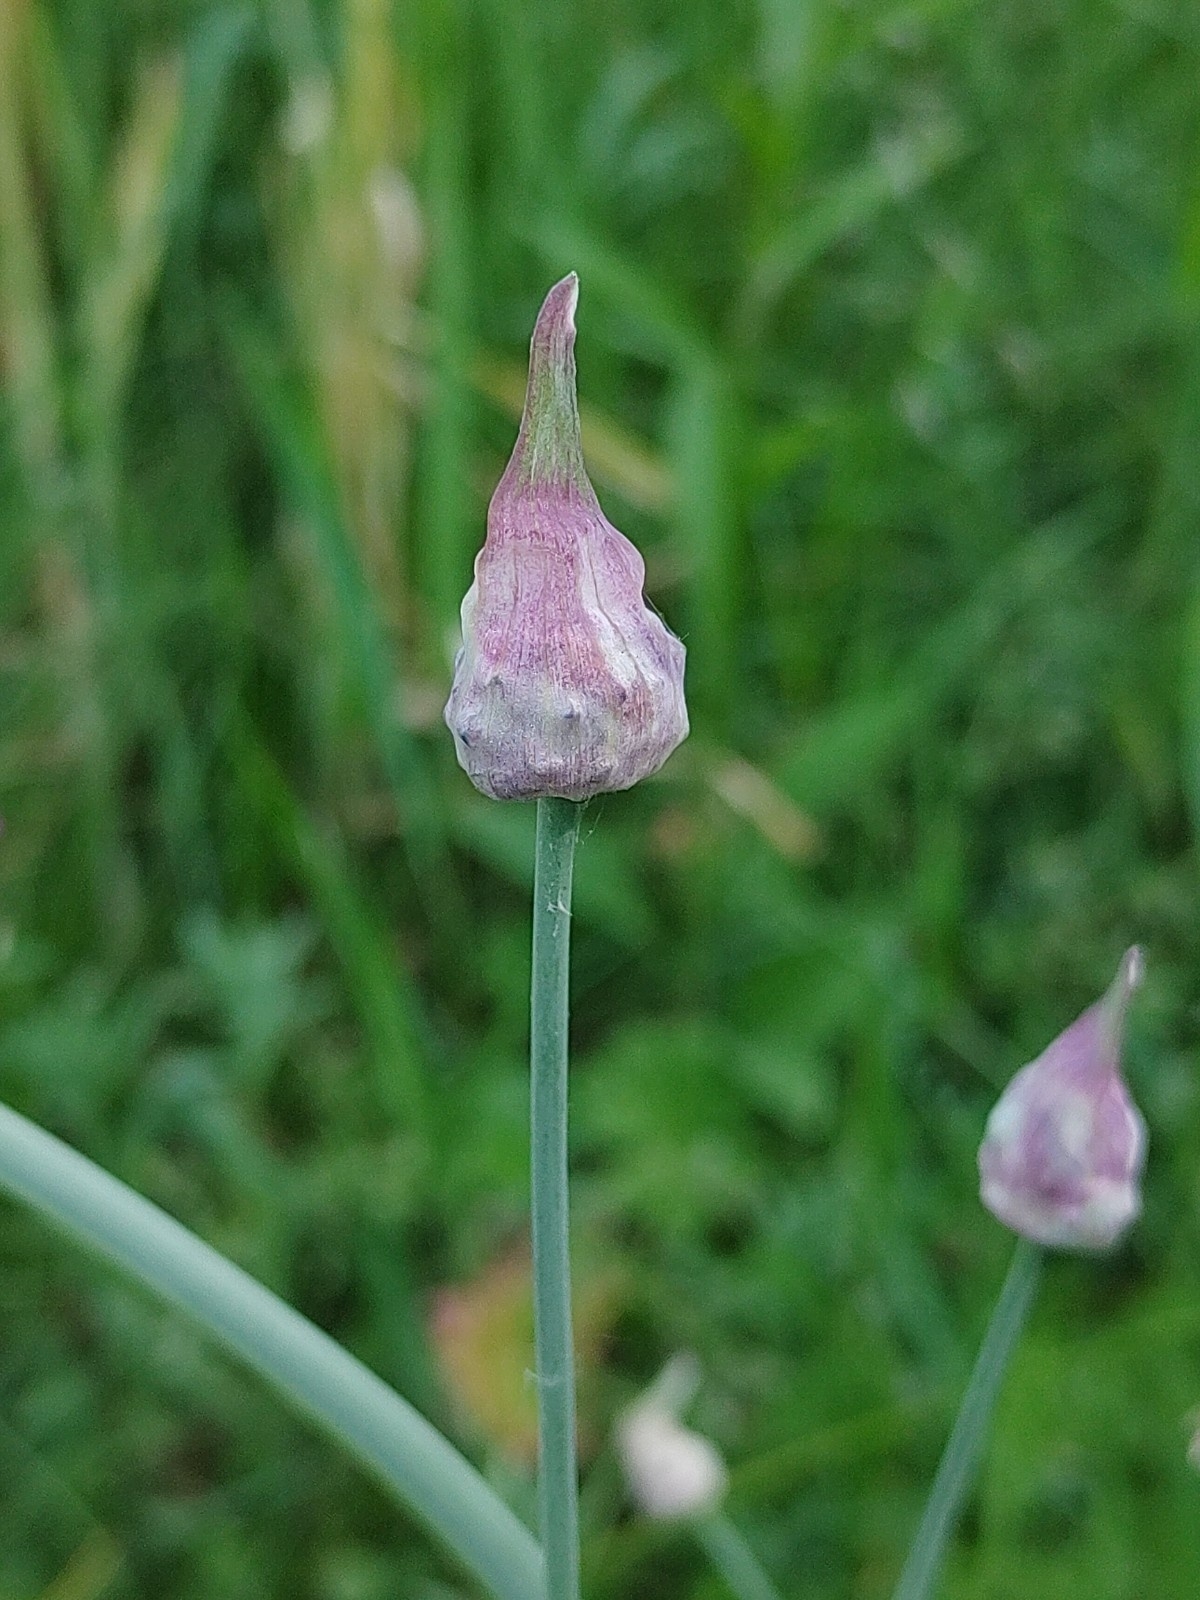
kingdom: Plantae
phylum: Tracheophyta
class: Liliopsida
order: Asparagales
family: Amaryllidaceae
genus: Allium
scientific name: Allium scorodoprasum
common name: Sand leek
